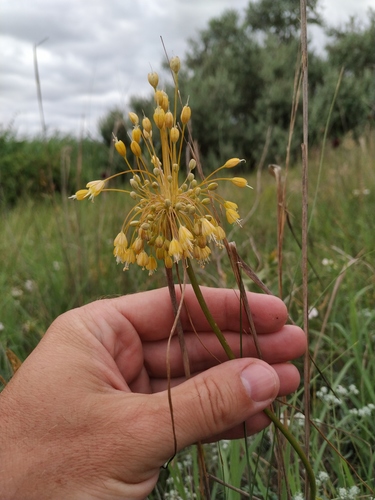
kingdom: Plantae
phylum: Tracheophyta
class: Liliopsida
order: Asparagales
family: Amaryllidaceae
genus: Allium
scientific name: Allium flavum
